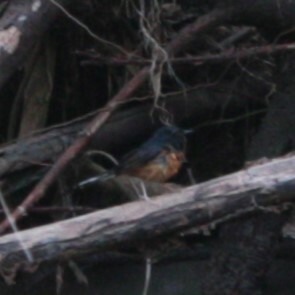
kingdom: Animalia
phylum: Chordata
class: Aves
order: Passeriformes
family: Muscicapidae
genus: Copsychus
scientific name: Copsychus malabaricus
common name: White-rumped shama
